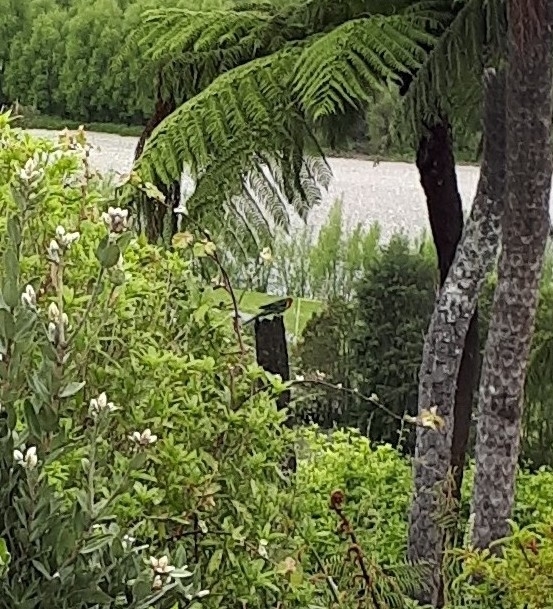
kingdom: Animalia
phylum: Chordata
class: Aves
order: Psittaciformes
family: Psittacidae
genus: Platycercus
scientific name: Platycercus eximius
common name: Eastern rosella
